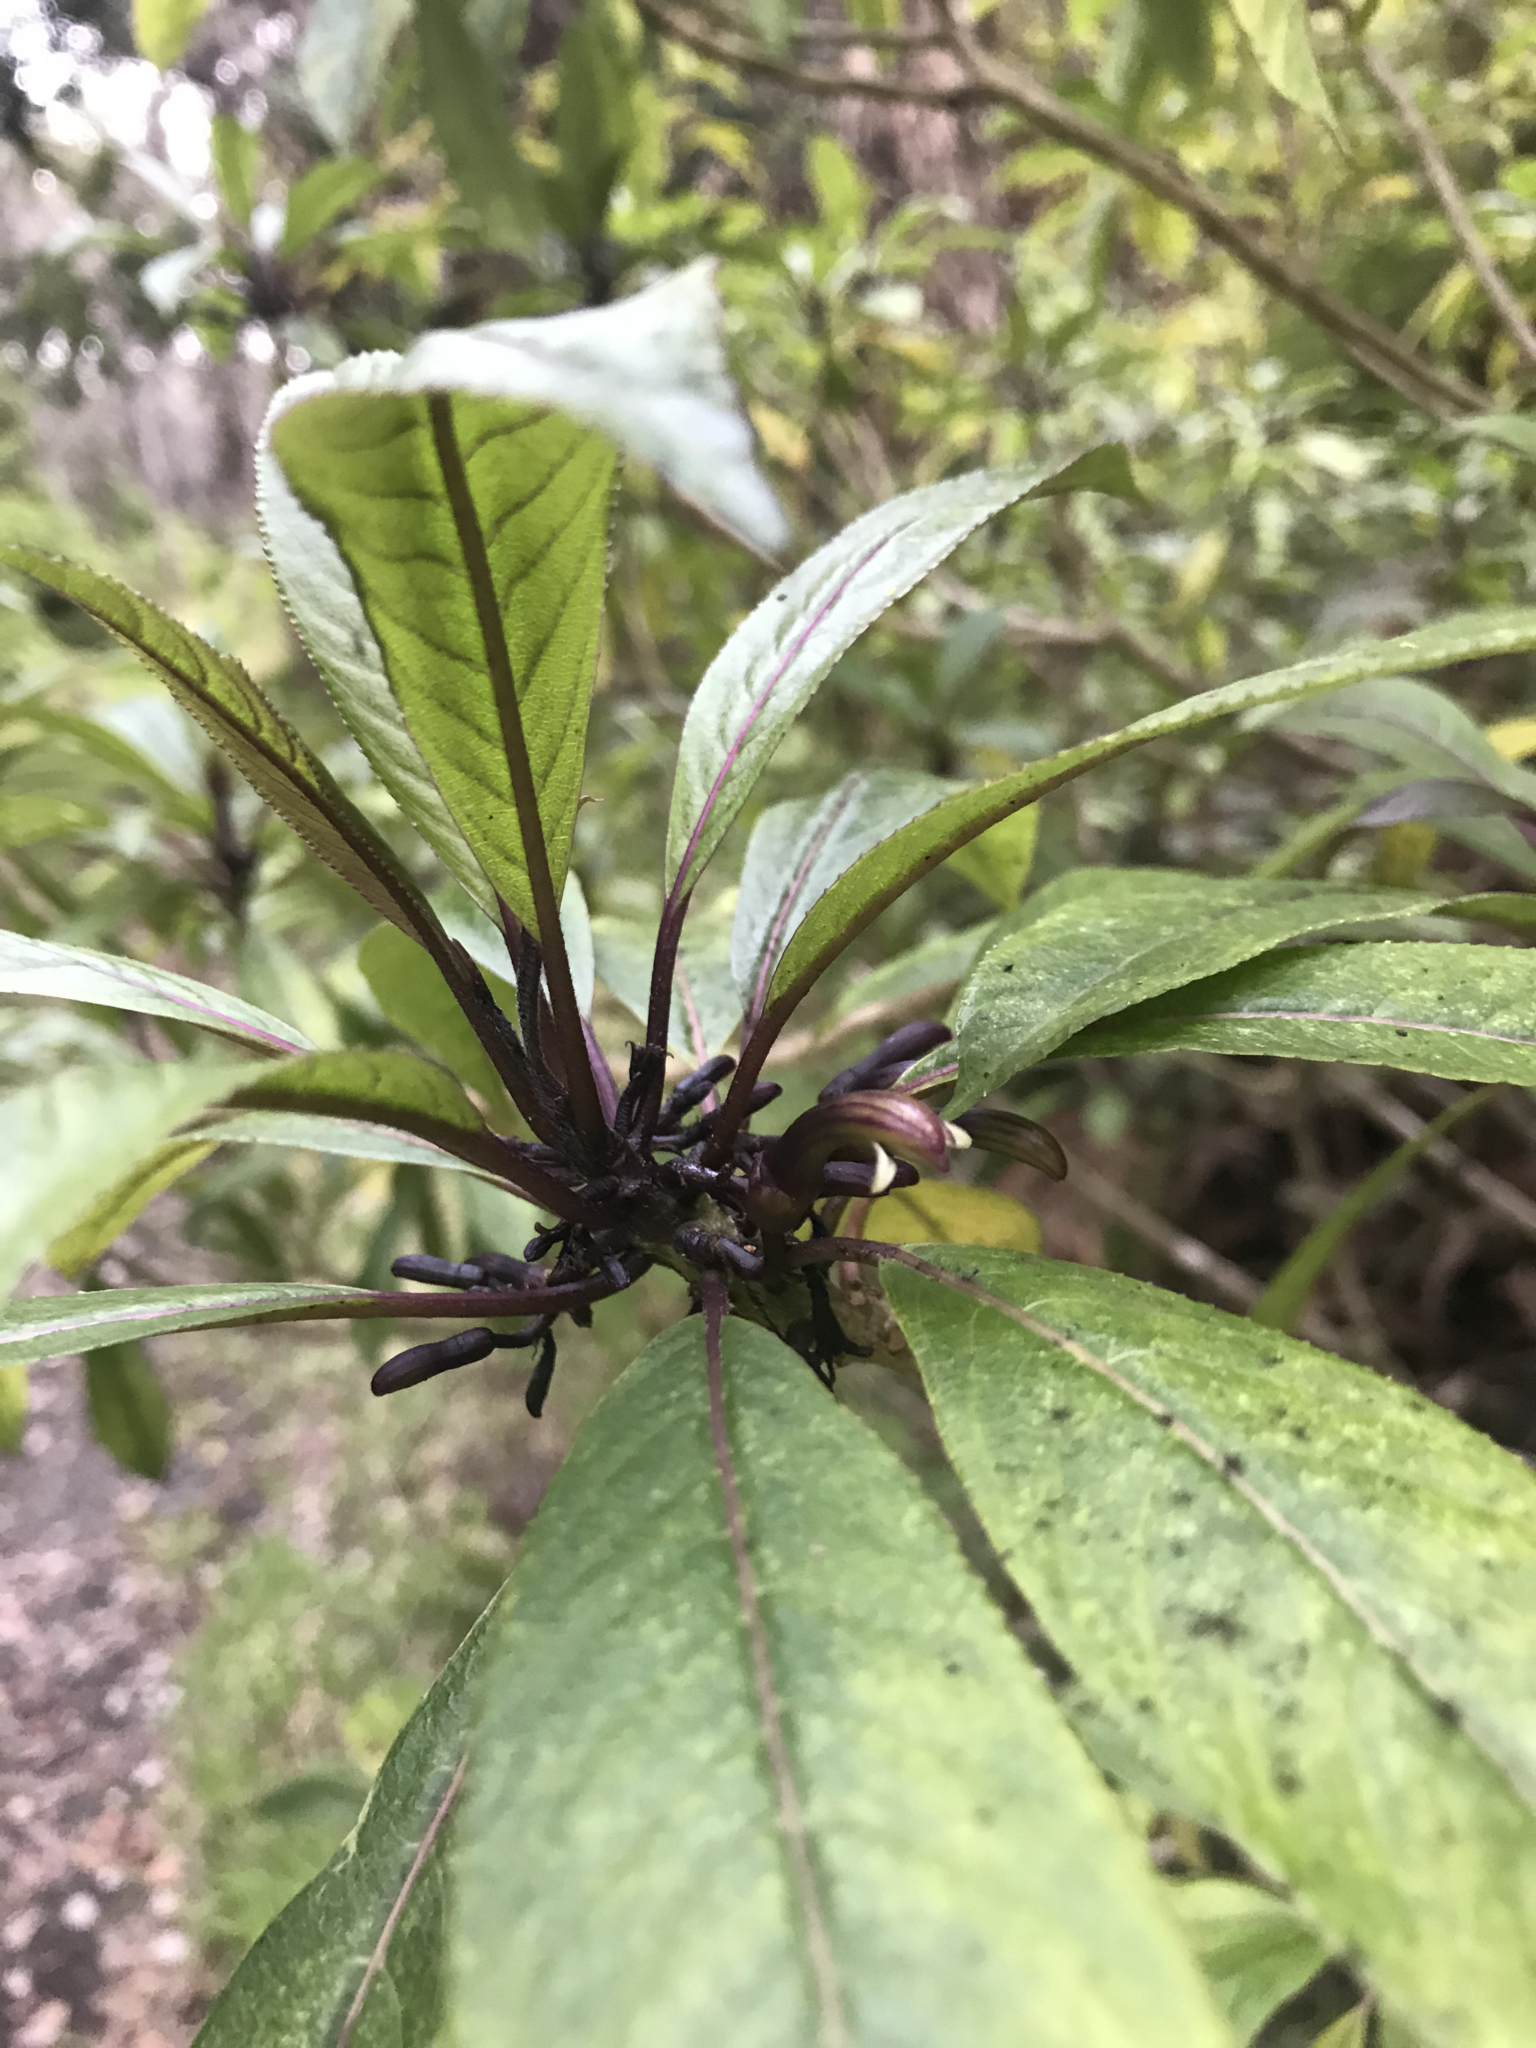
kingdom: Plantae
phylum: Tracheophyta
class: Magnoliopsida
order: Asterales
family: Campanulaceae
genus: Clermontia
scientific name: Clermontia parviflora
